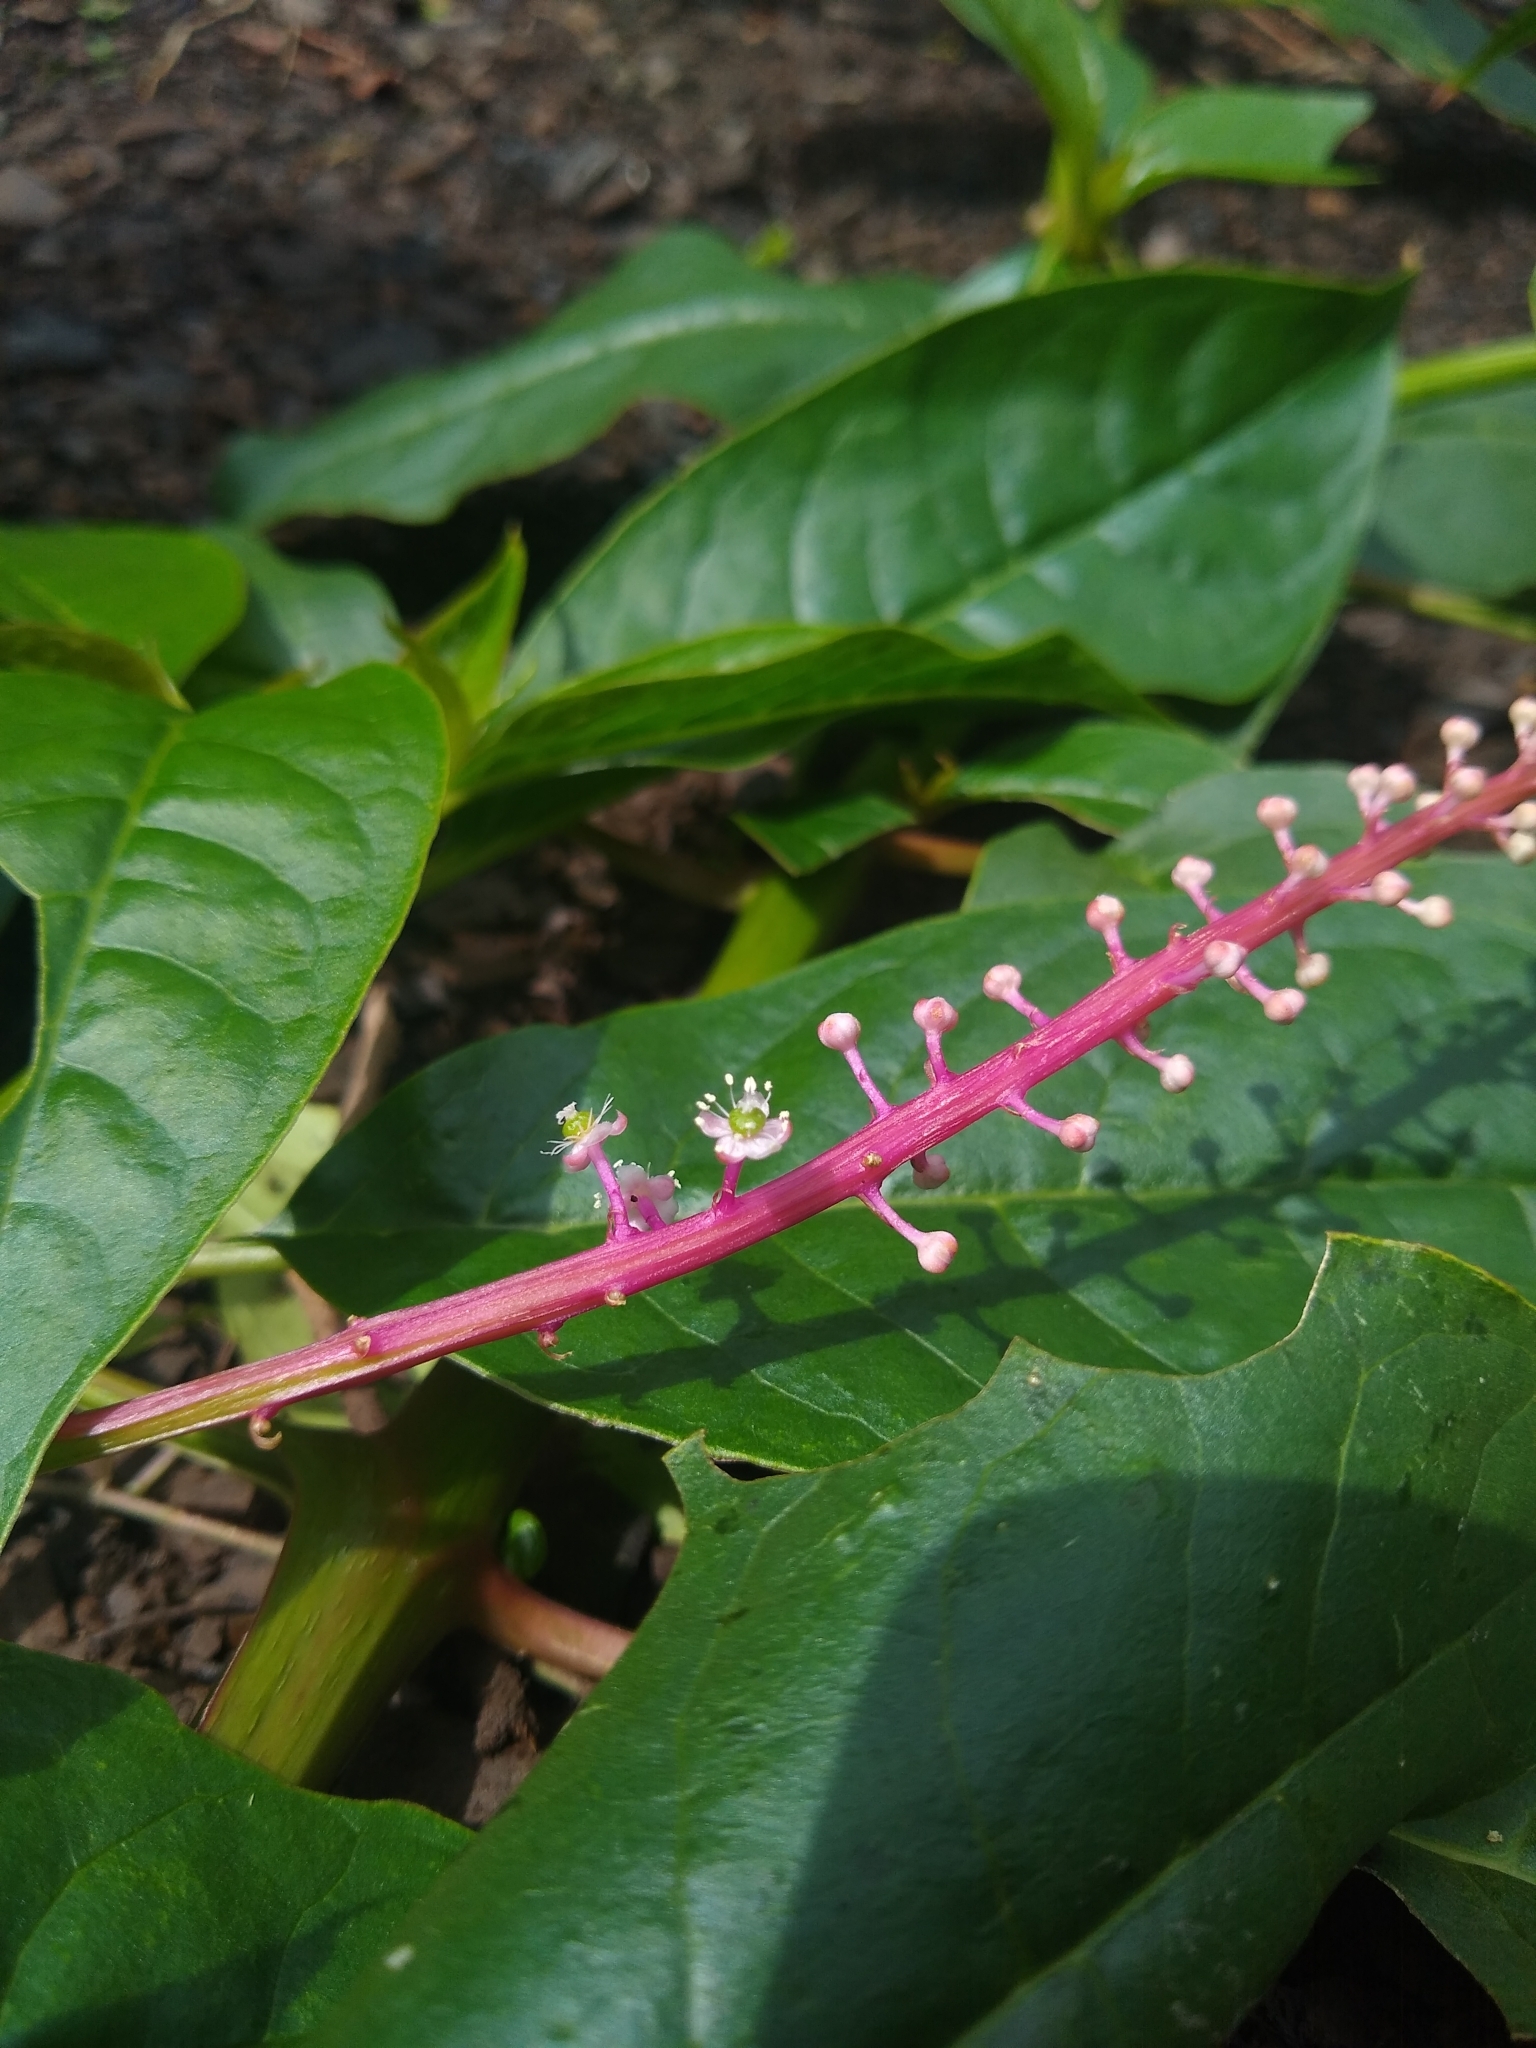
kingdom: Plantae
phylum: Tracheophyta
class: Magnoliopsida
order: Caryophyllales
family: Phytolaccaceae
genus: Phytolacca
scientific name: Phytolacca rivinoides
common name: Venezuelan pokeweed
